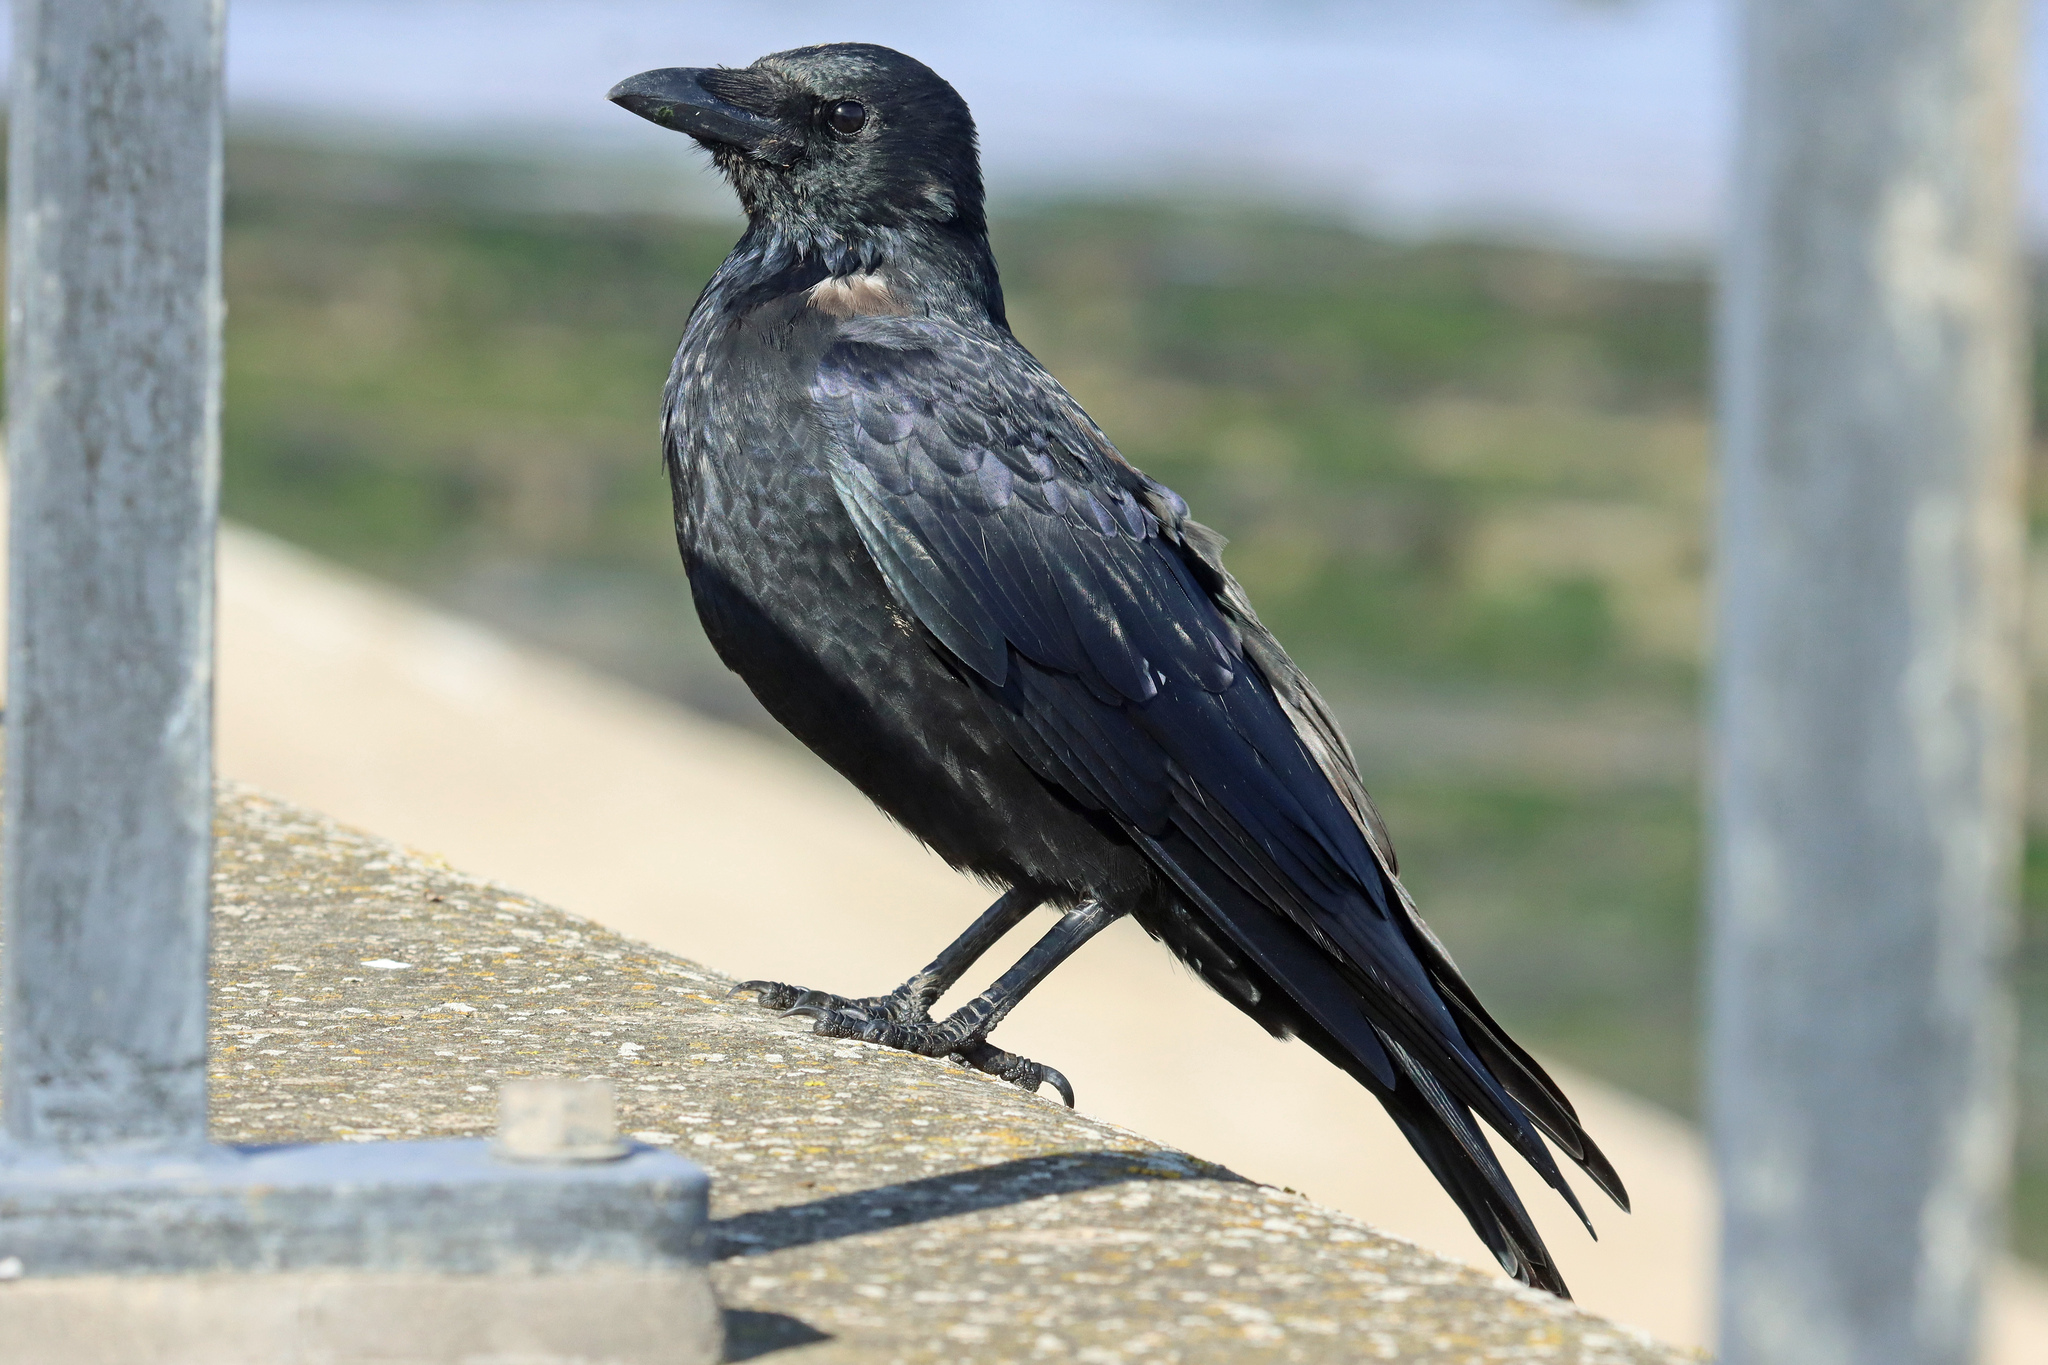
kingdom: Animalia
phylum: Chordata
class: Aves
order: Passeriformes
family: Corvidae
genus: Corvus
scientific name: Corvus corone
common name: Carrion crow
